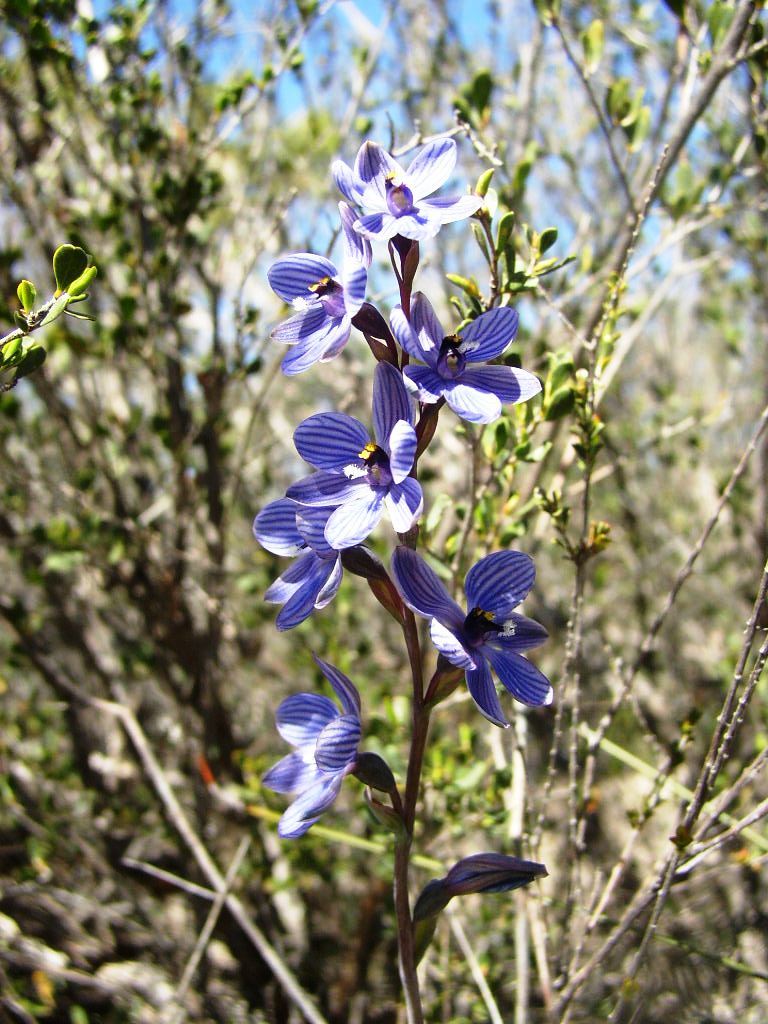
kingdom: Plantae
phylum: Tracheophyta
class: Liliopsida
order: Asparagales
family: Orchidaceae
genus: Thelymitra
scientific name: Thelymitra campanulata
